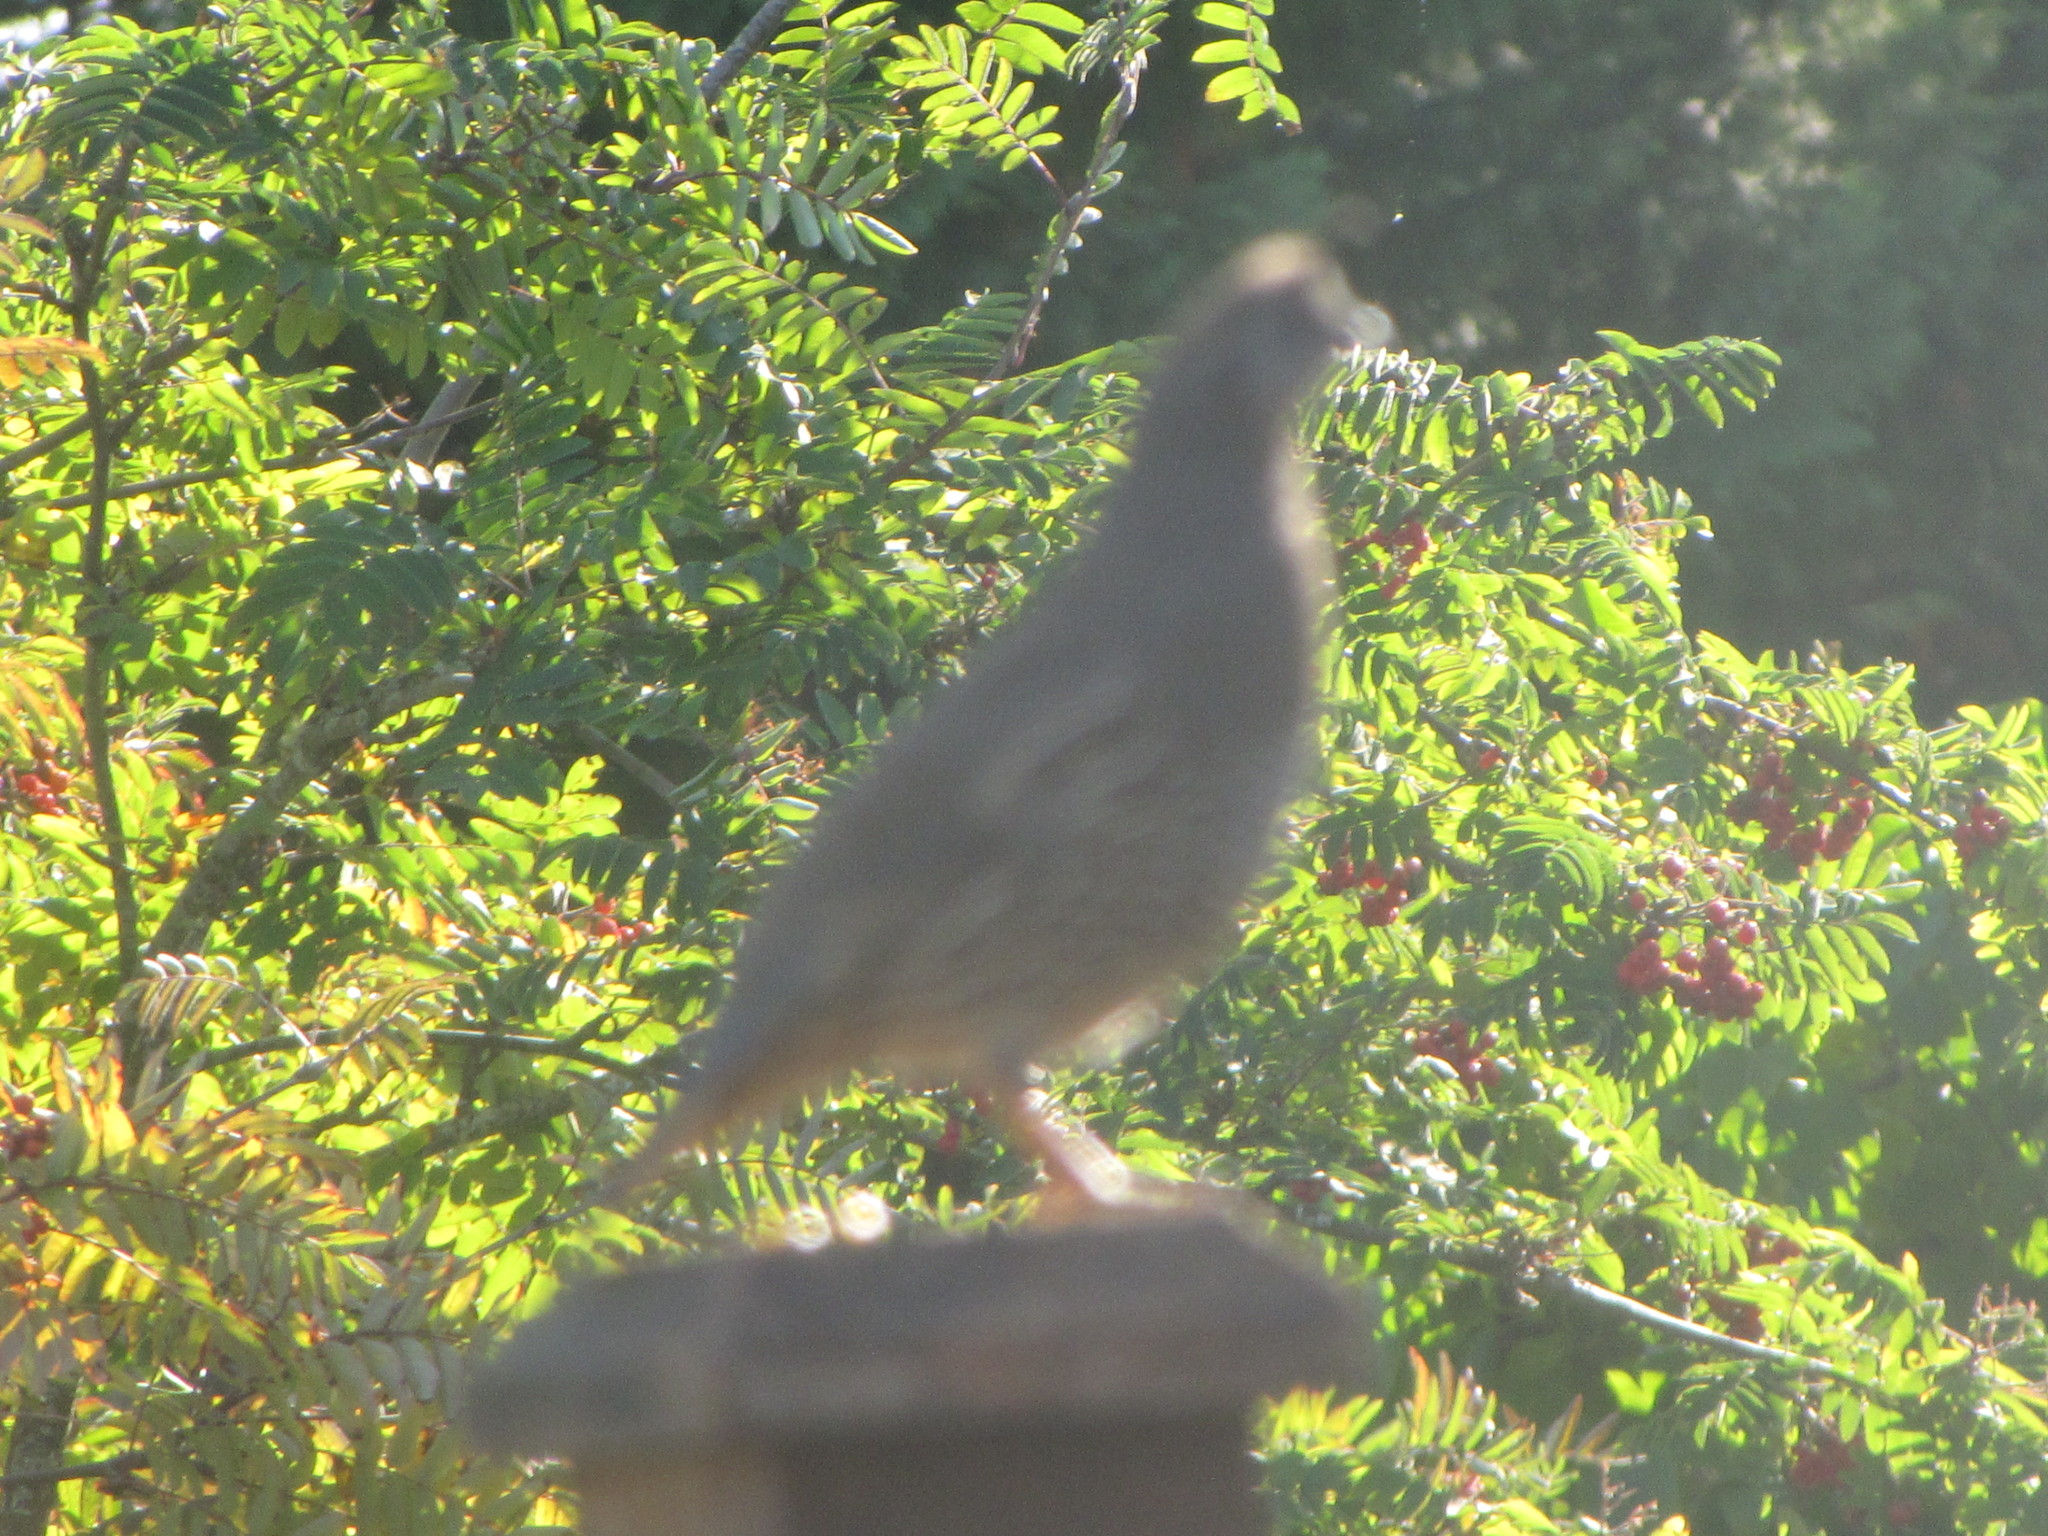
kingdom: Animalia
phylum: Chordata
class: Aves
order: Galliformes
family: Odontophoridae
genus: Callipepla
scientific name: Callipepla californica
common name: California quail
